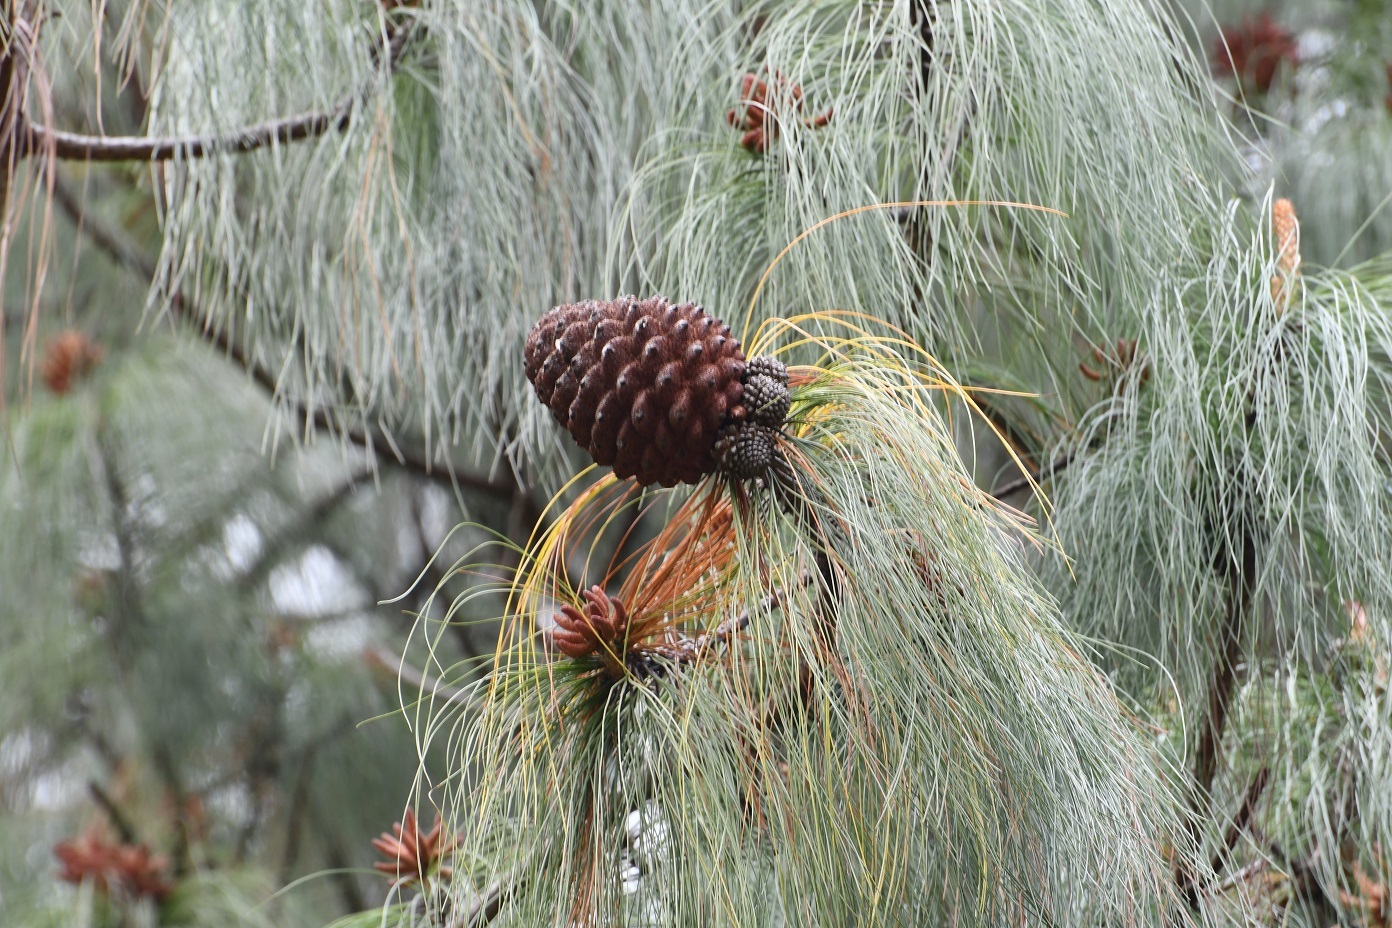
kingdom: Plantae
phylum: Tracheophyta
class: Pinopsida
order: Pinales
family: Pinaceae
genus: Pinus
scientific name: Pinus pseudostrobus
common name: False weymouth pine
